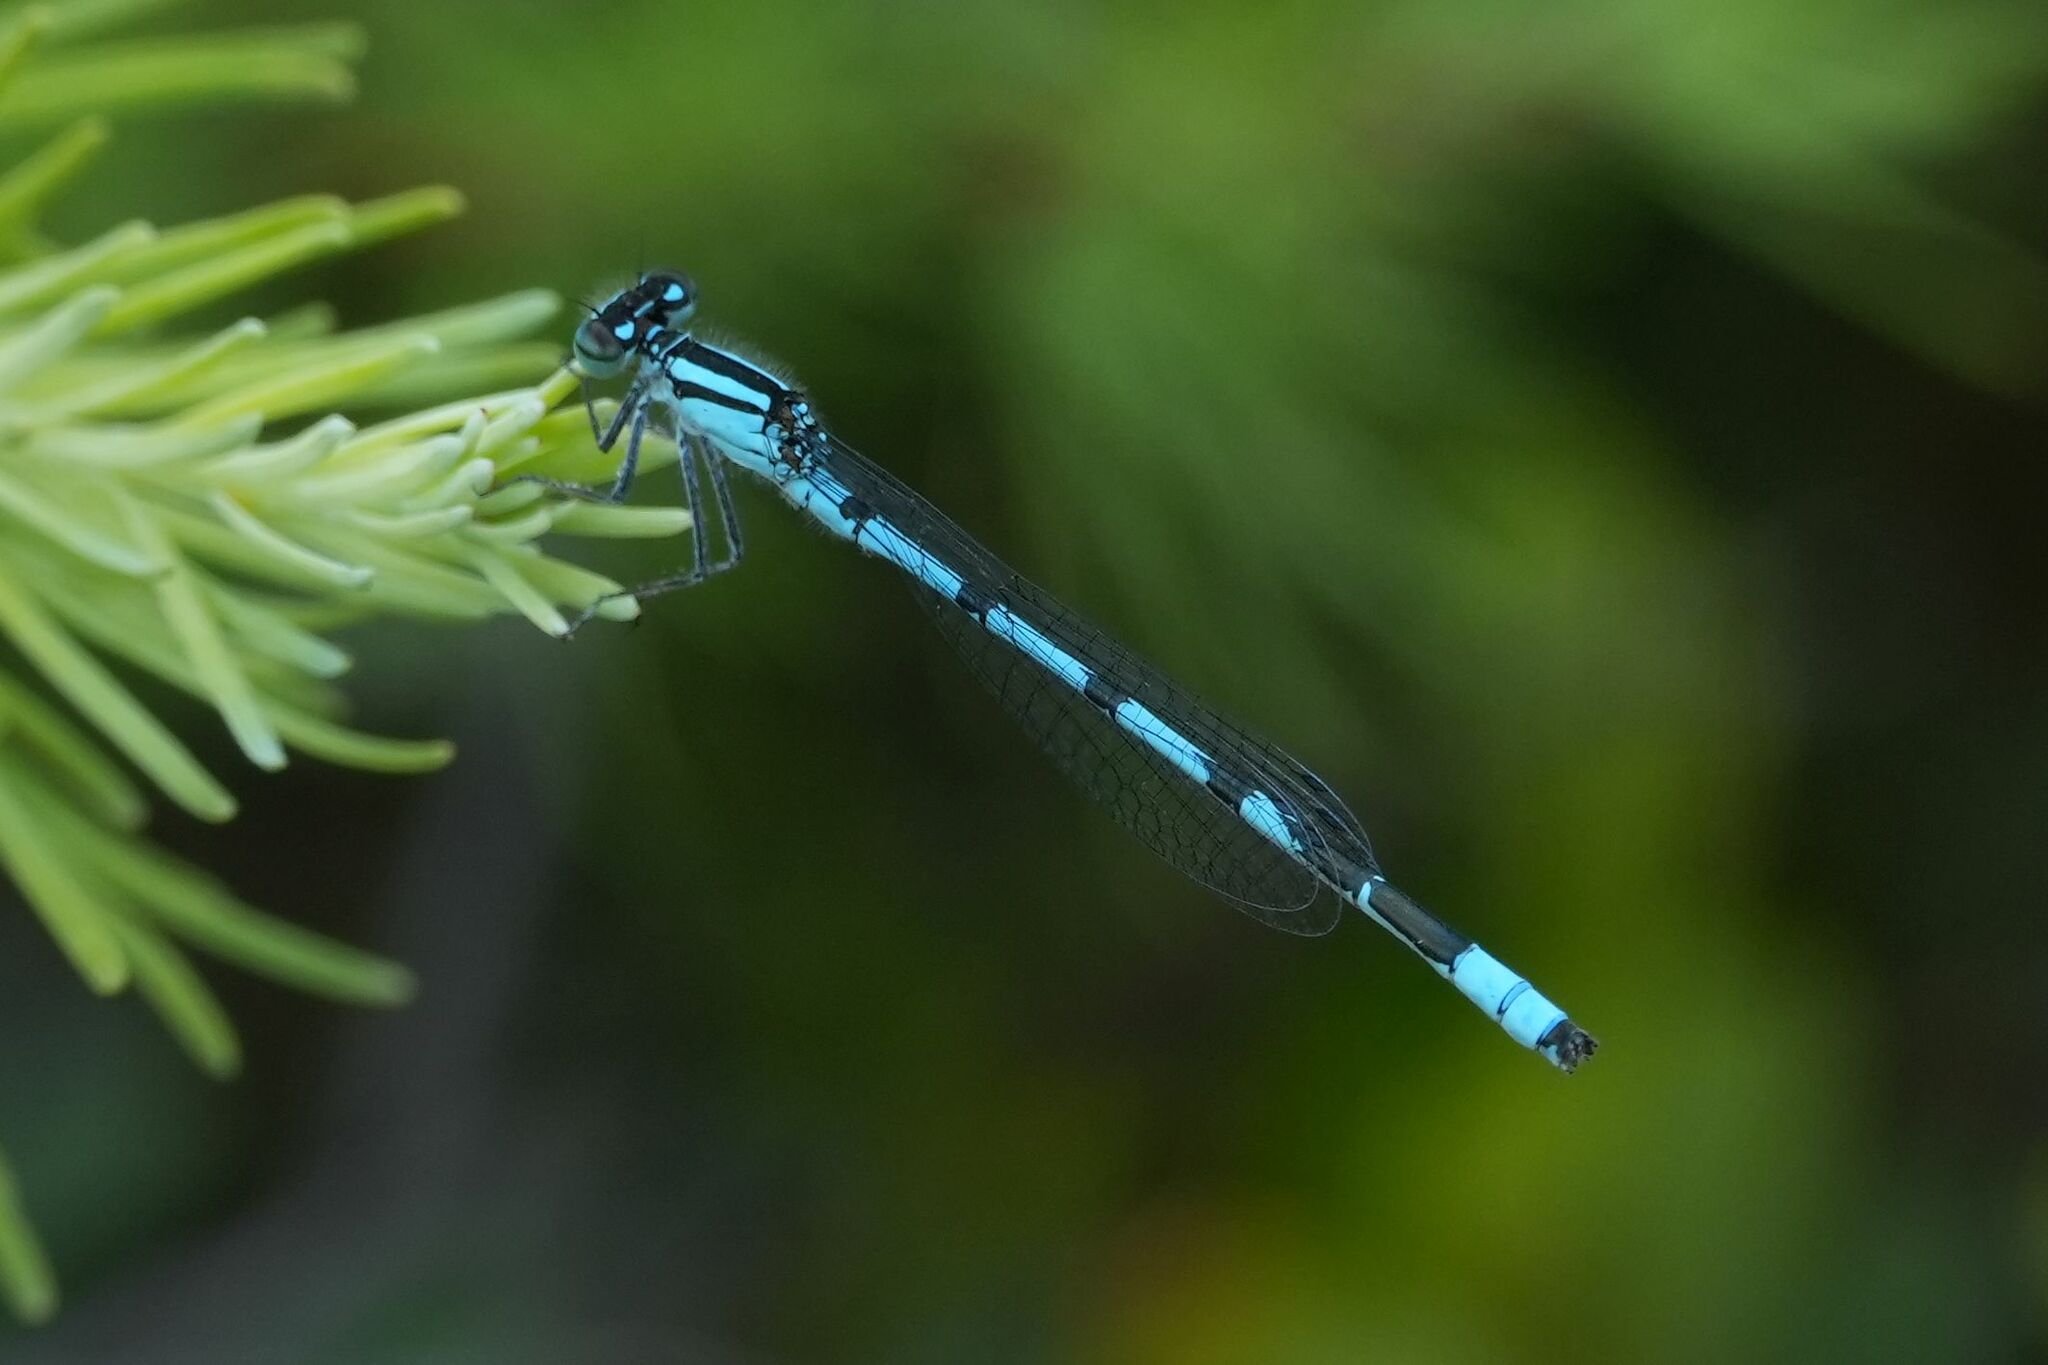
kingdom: Animalia
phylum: Arthropoda
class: Insecta
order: Odonata
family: Coenagrionidae
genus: Enallagma
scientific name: Enallagma ebrium
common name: Marsh bluet
